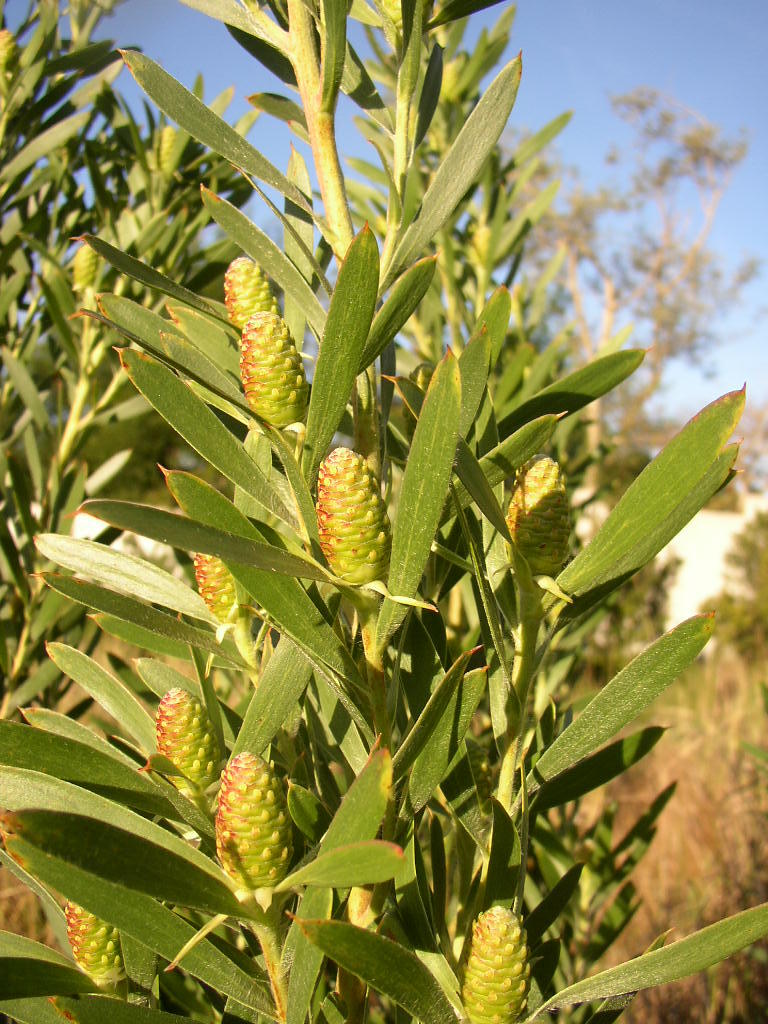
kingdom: Plantae
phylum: Tracheophyta
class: Magnoliopsida
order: Proteales
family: Proteaceae
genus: Leucadendron
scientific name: Leucadendron macowanii
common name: Acacia-leaf conebush
